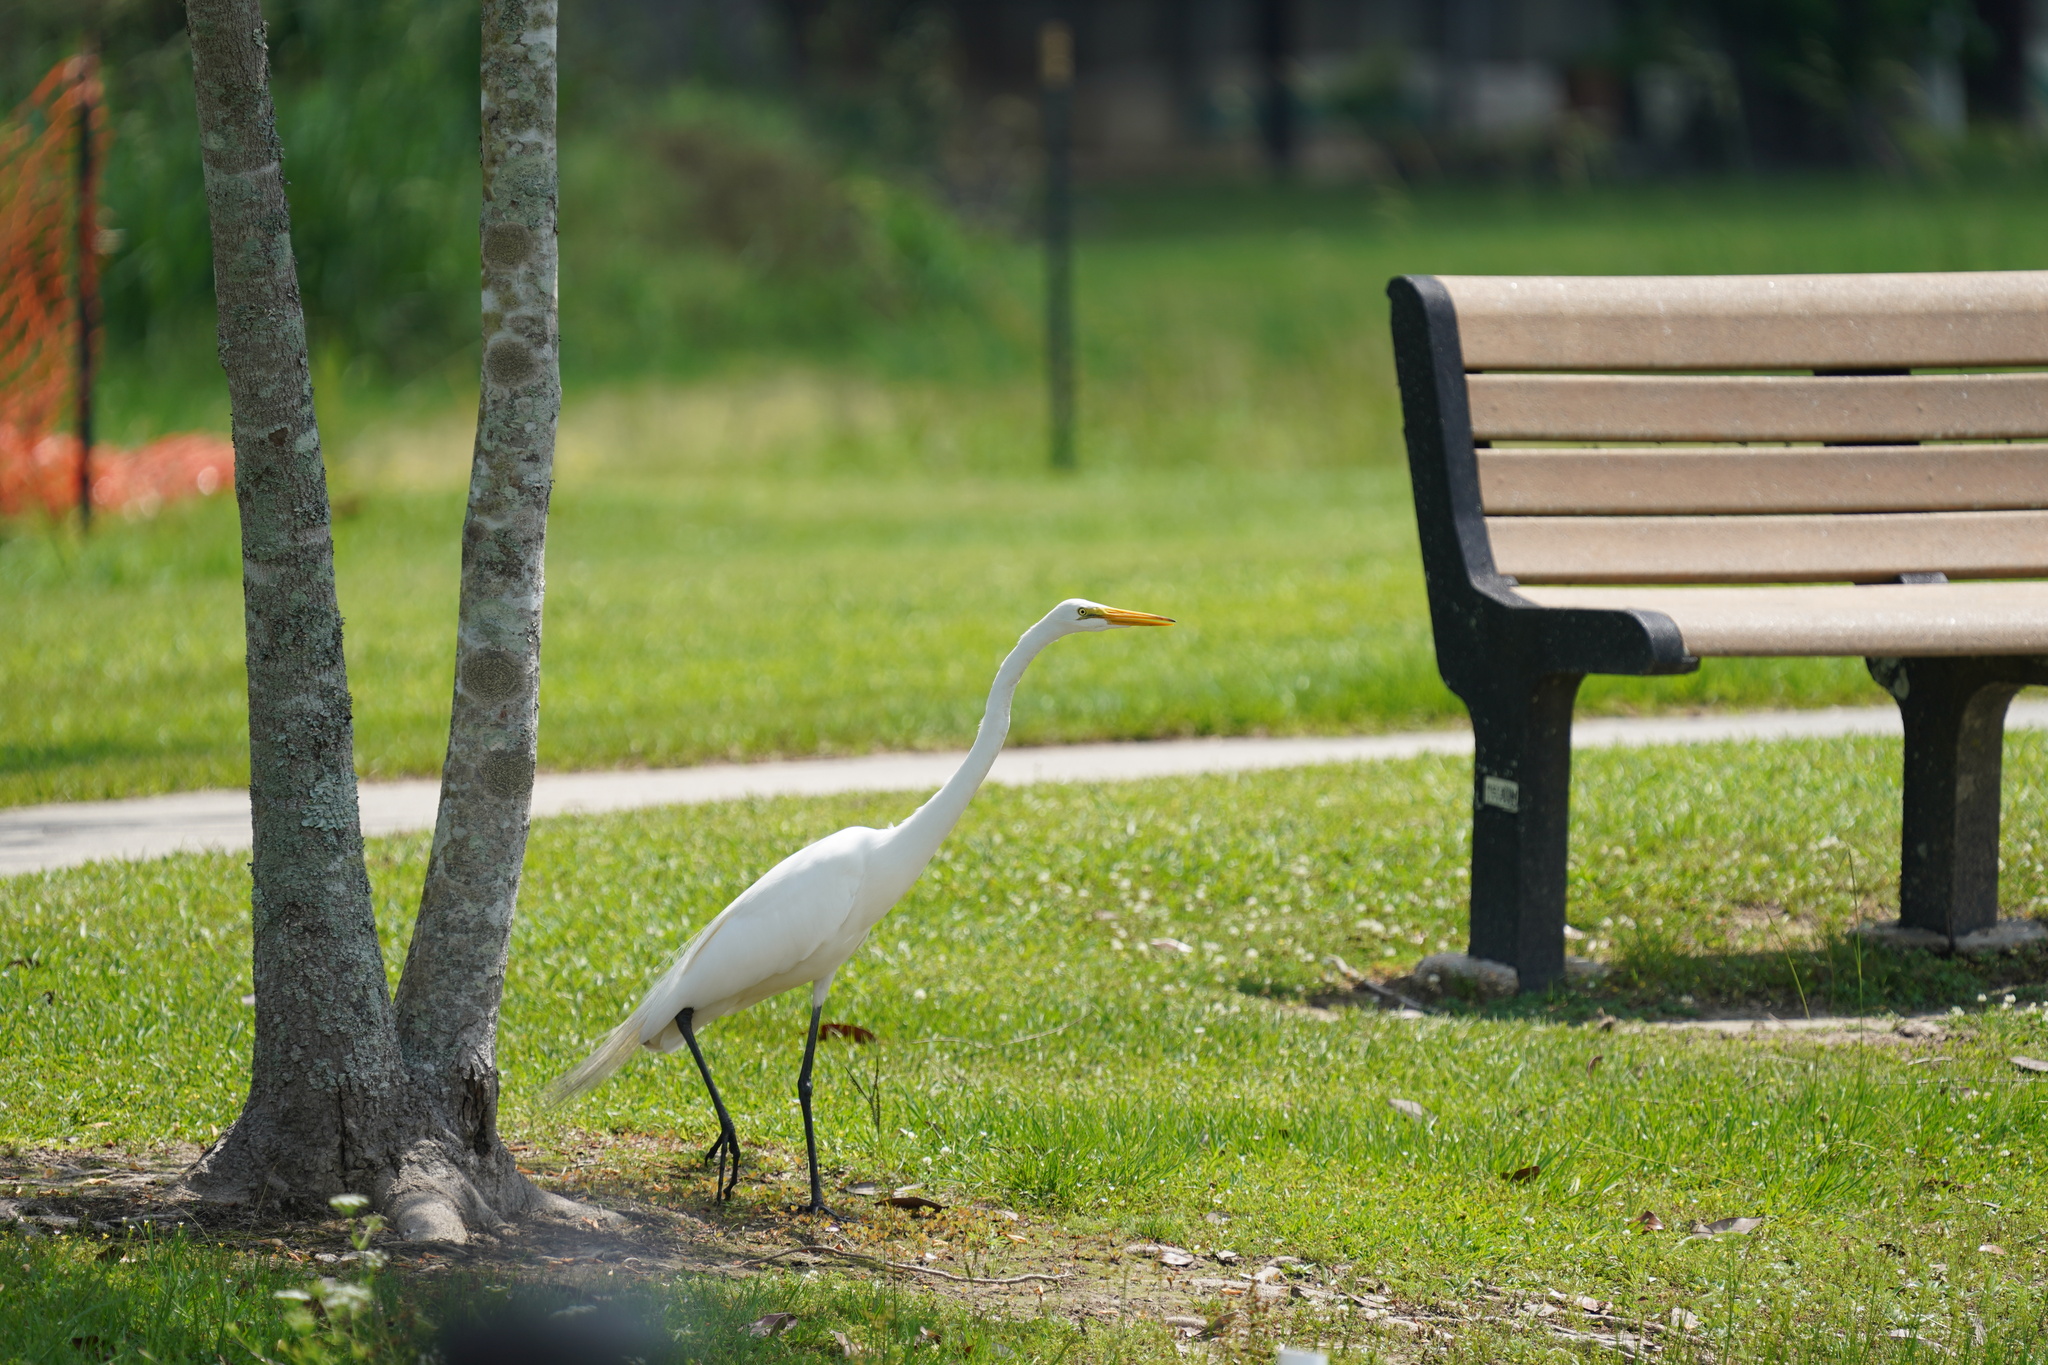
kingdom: Animalia
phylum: Chordata
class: Aves
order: Pelecaniformes
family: Ardeidae
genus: Ardea
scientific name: Ardea alba
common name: Great egret
